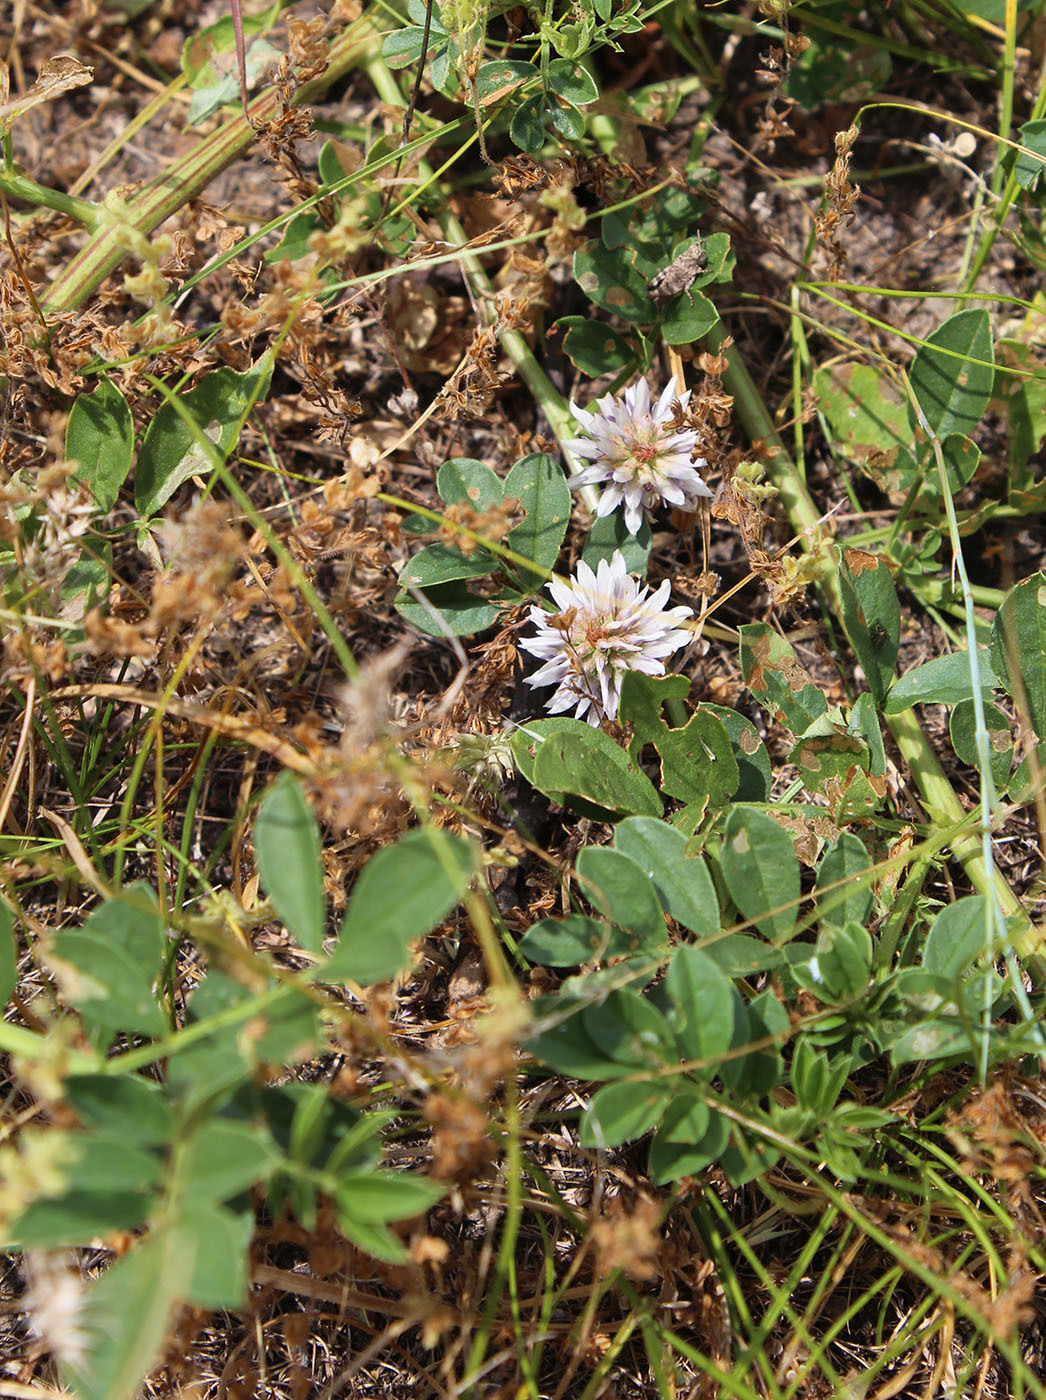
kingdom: Plantae
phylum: Tracheophyta
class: Magnoliopsida
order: Fabales
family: Fabaceae
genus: Glycyrrhiza
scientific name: Glycyrrhiza echinata
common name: German liquorice
